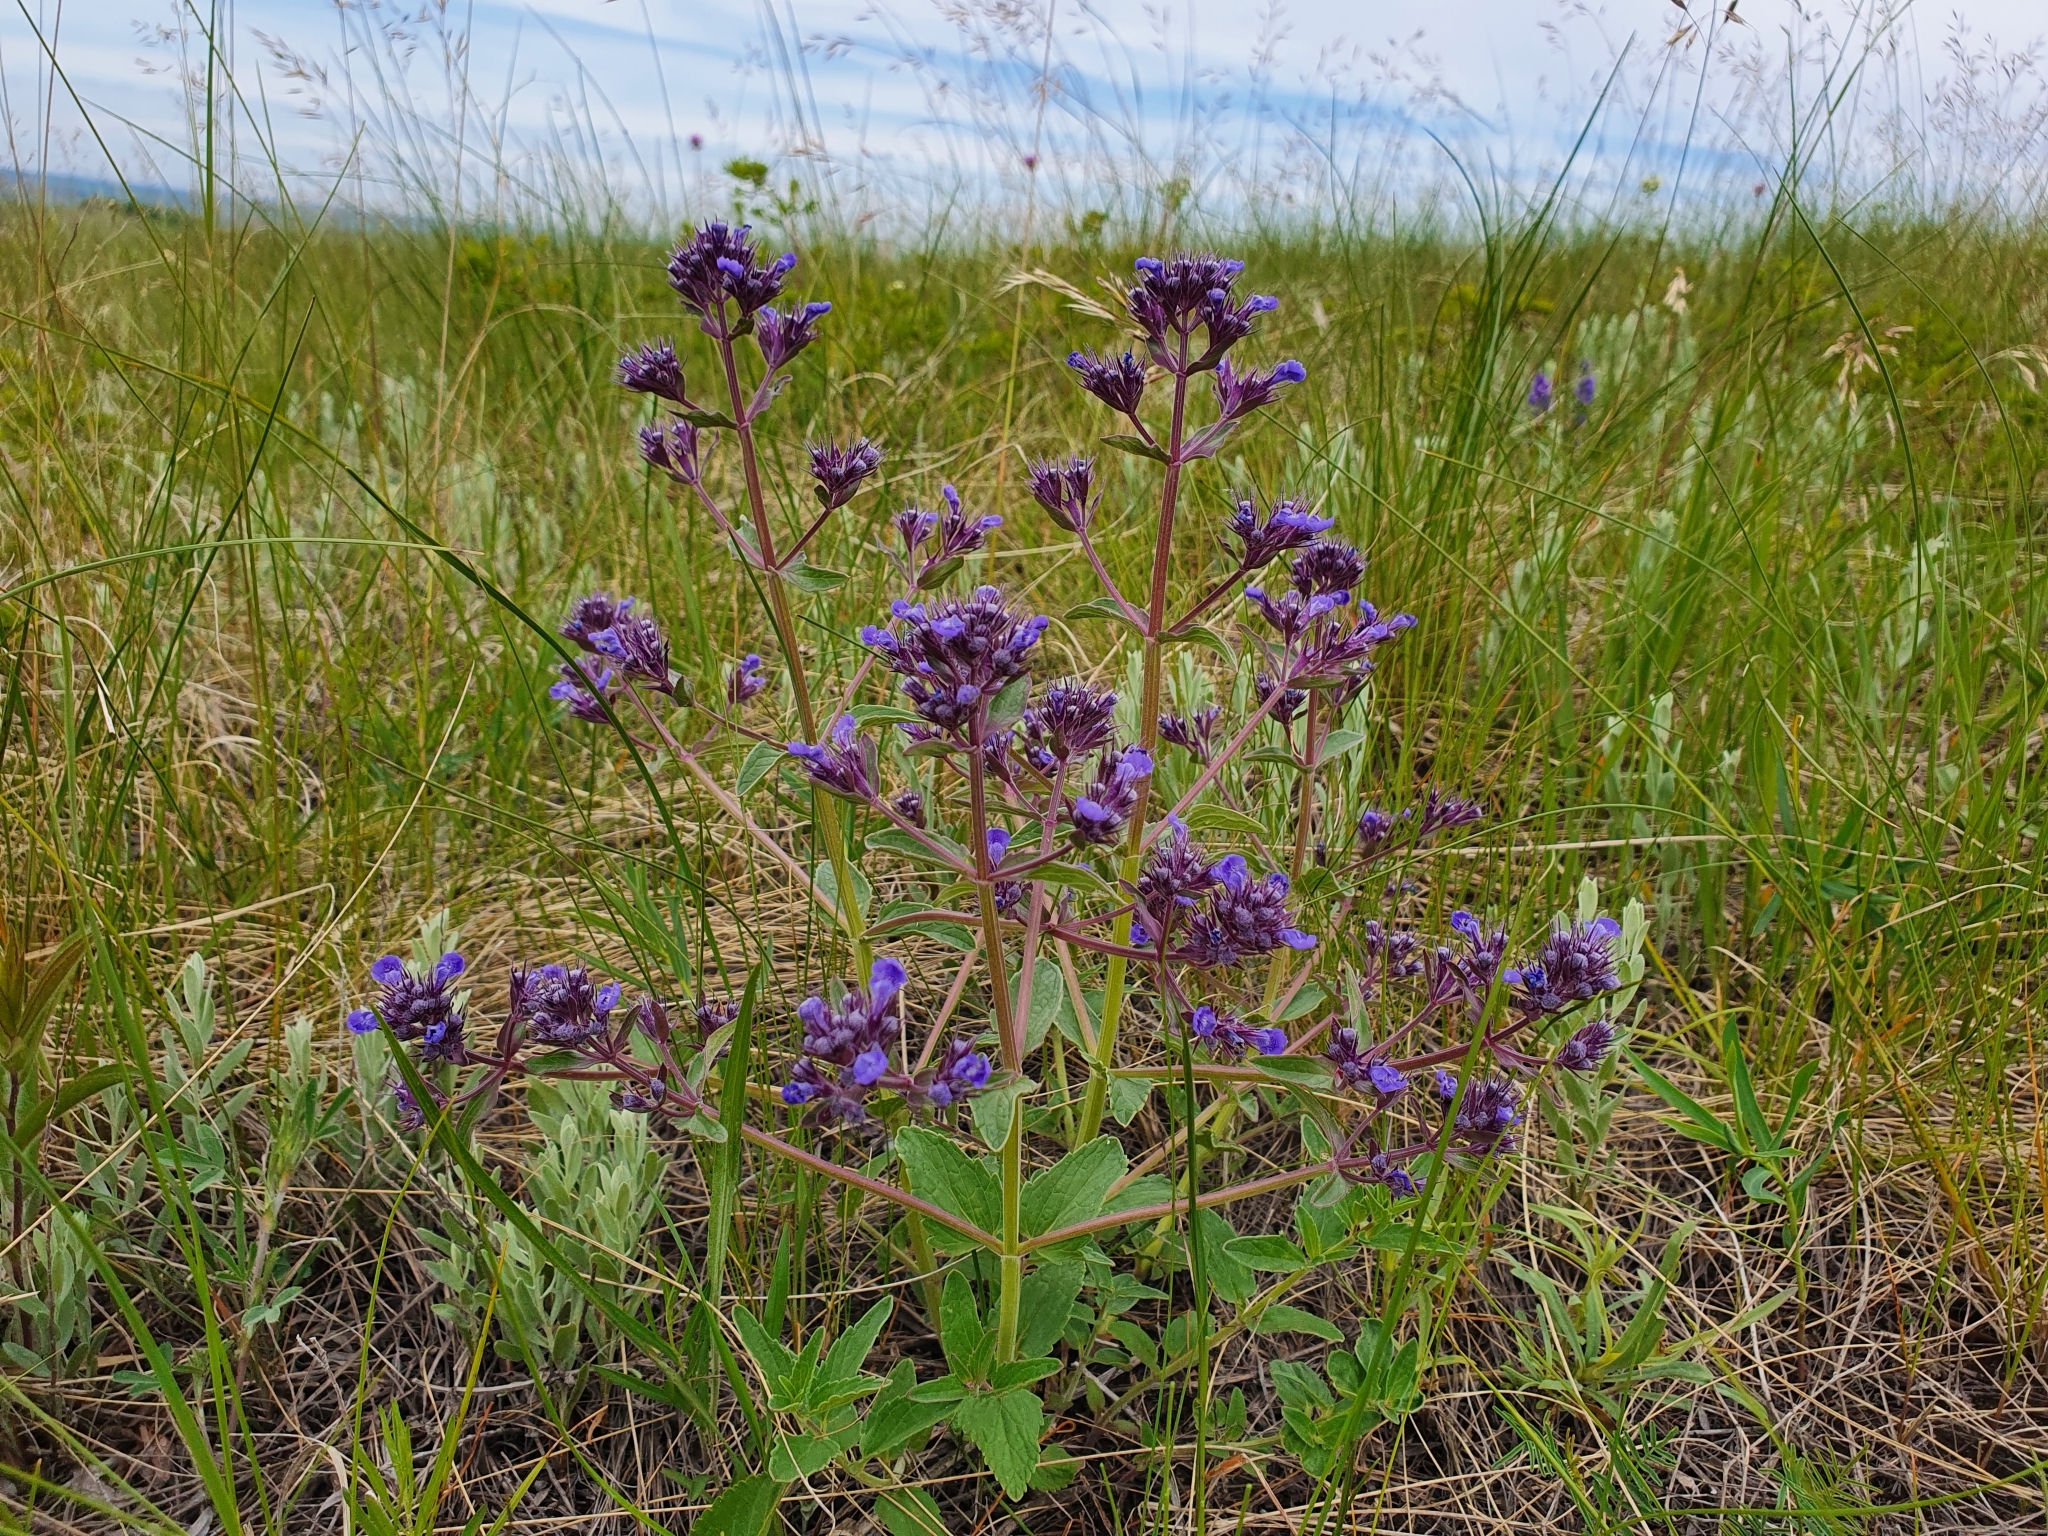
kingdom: Plantae
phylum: Tracheophyta
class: Magnoliopsida
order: Lamiales
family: Lamiaceae
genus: Nepeta
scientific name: Nepeta ucranica
